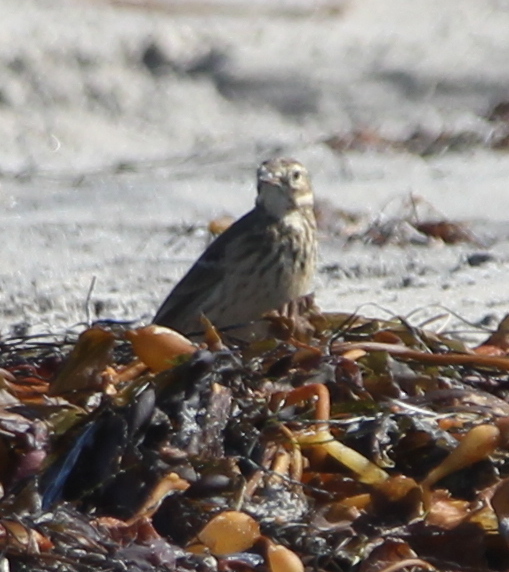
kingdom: Animalia
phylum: Chordata
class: Aves
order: Passeriformes
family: Motacillidae
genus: Anthus
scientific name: Anthus rubescens
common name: Buff-bellied pipit
